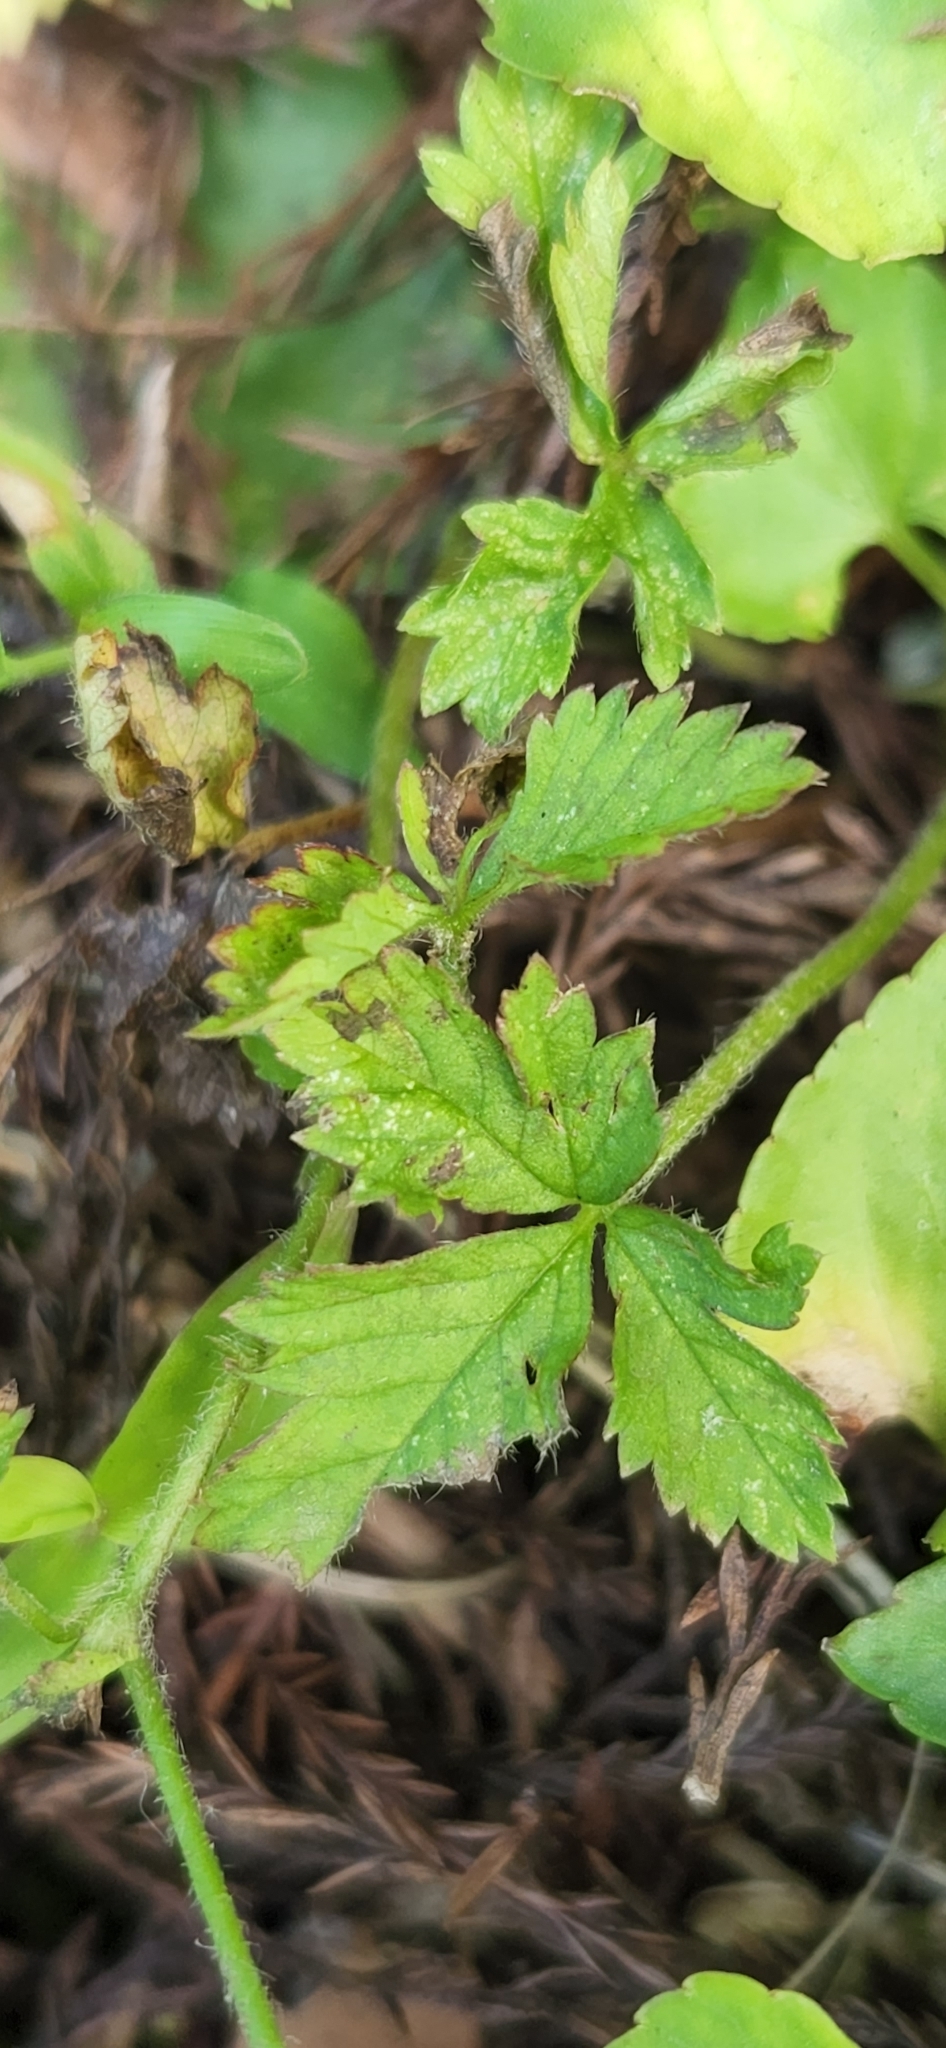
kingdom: Plantae
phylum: Tracheophyta
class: Magnoliopsida
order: Rosales
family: Rosaceae
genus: Potentilla
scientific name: Potentilla indica
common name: Yellow-flowered strawberry
